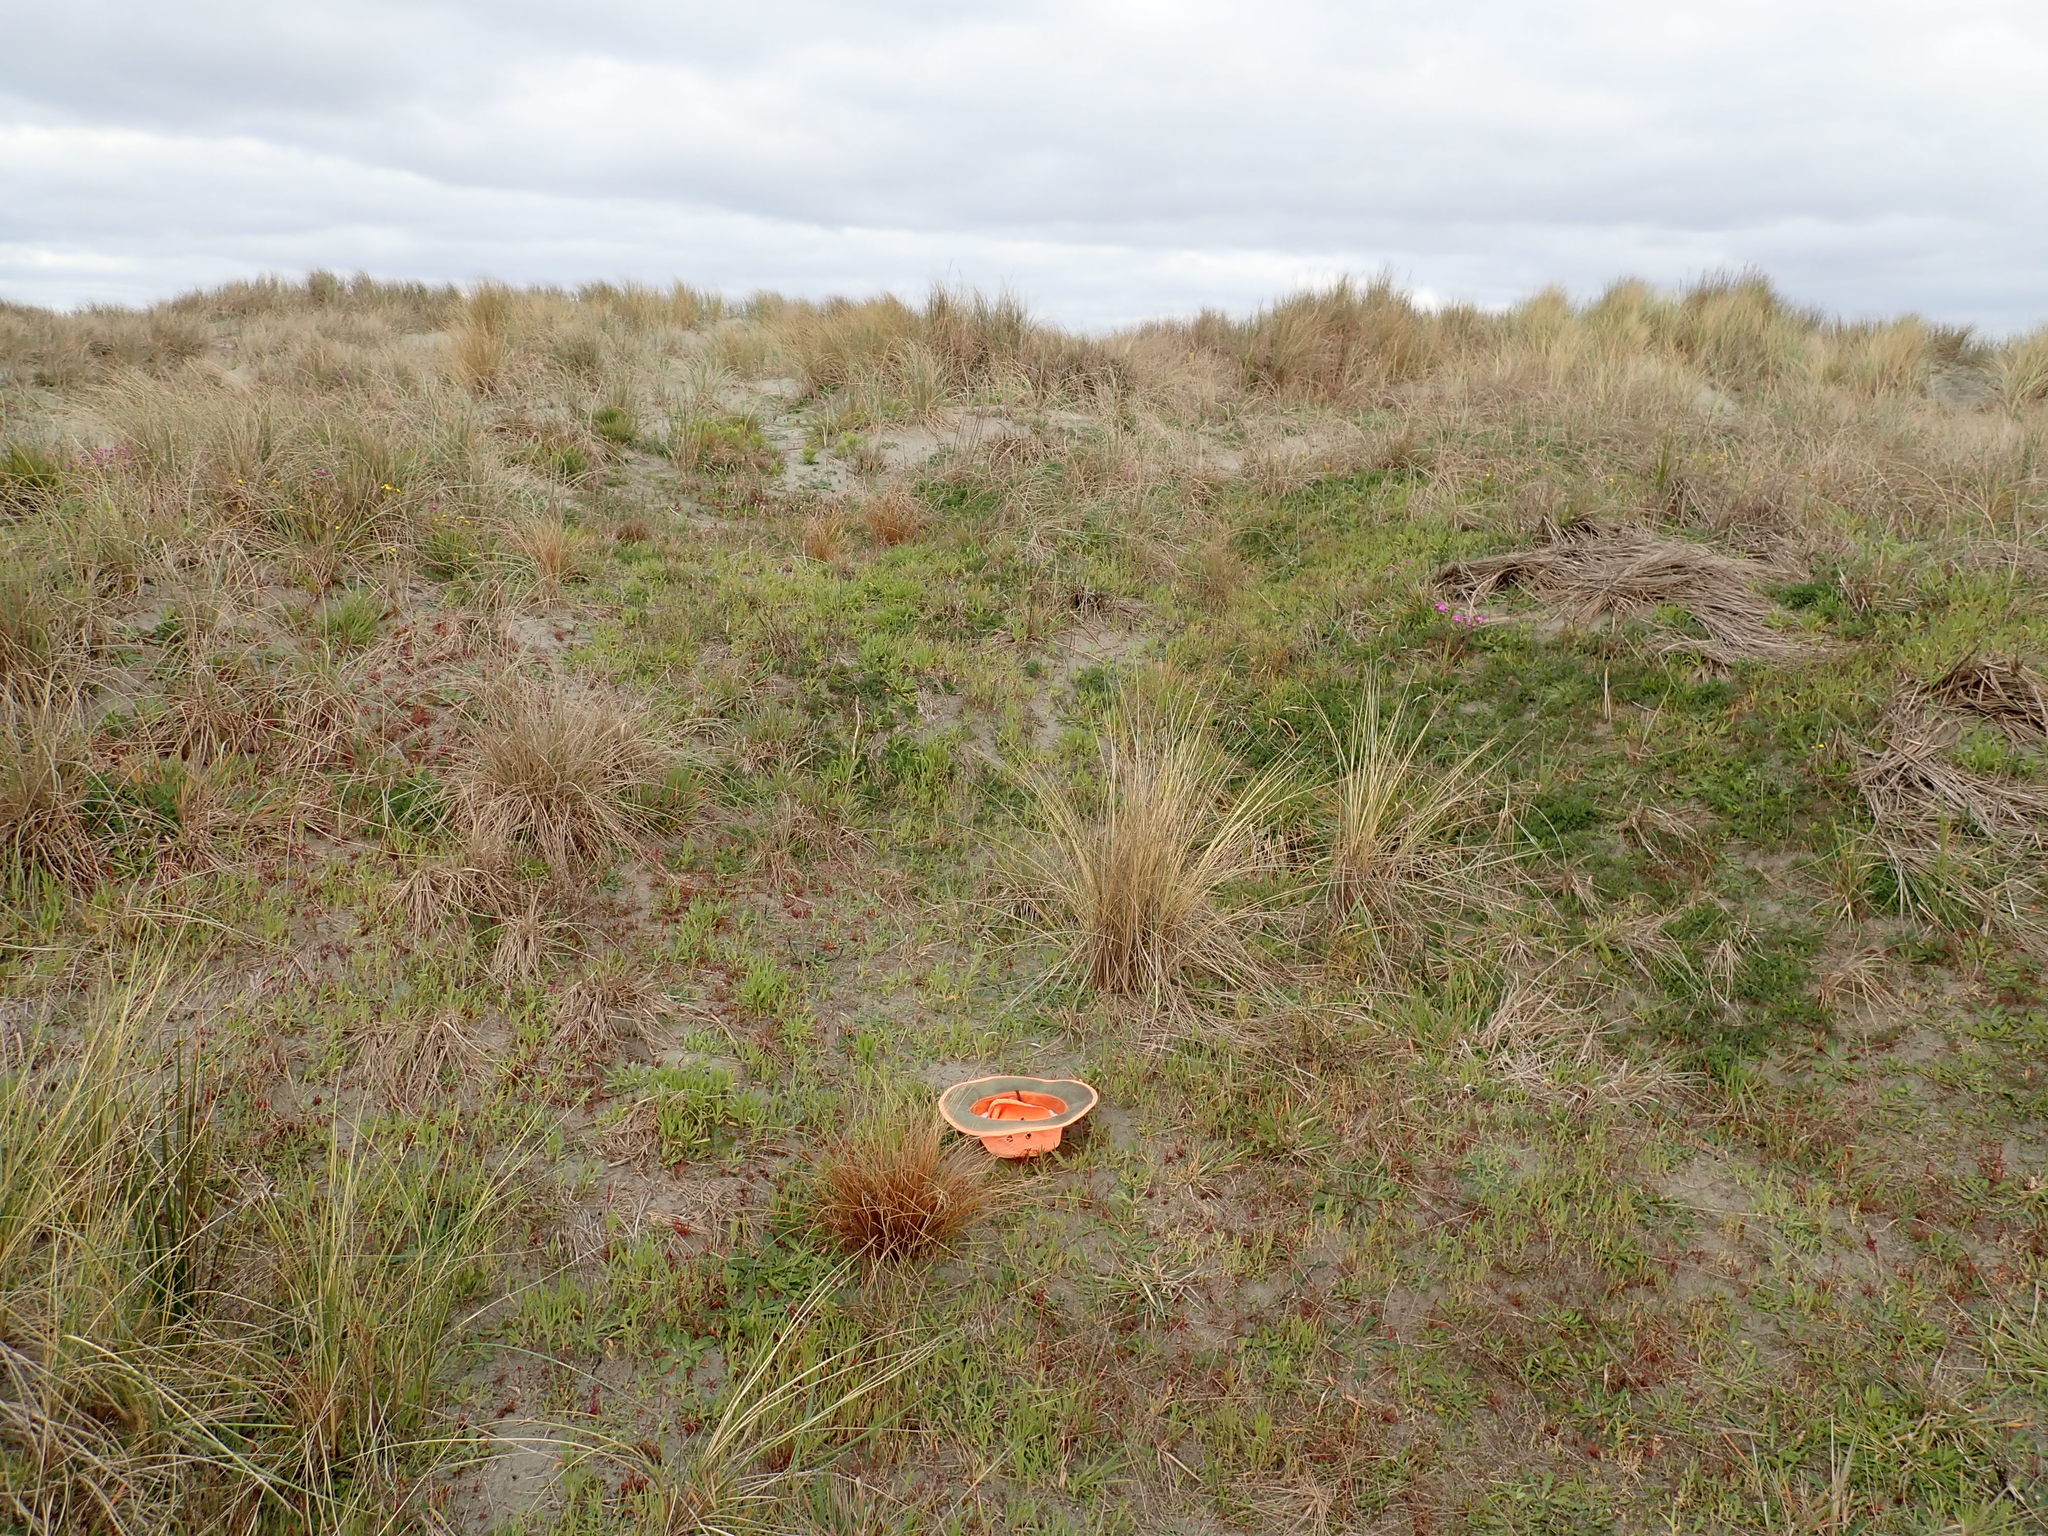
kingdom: Plantae
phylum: Tracheophyta
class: Liliopsida
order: Poales
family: Cyperaceae
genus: Carex
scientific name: Carex testacea
